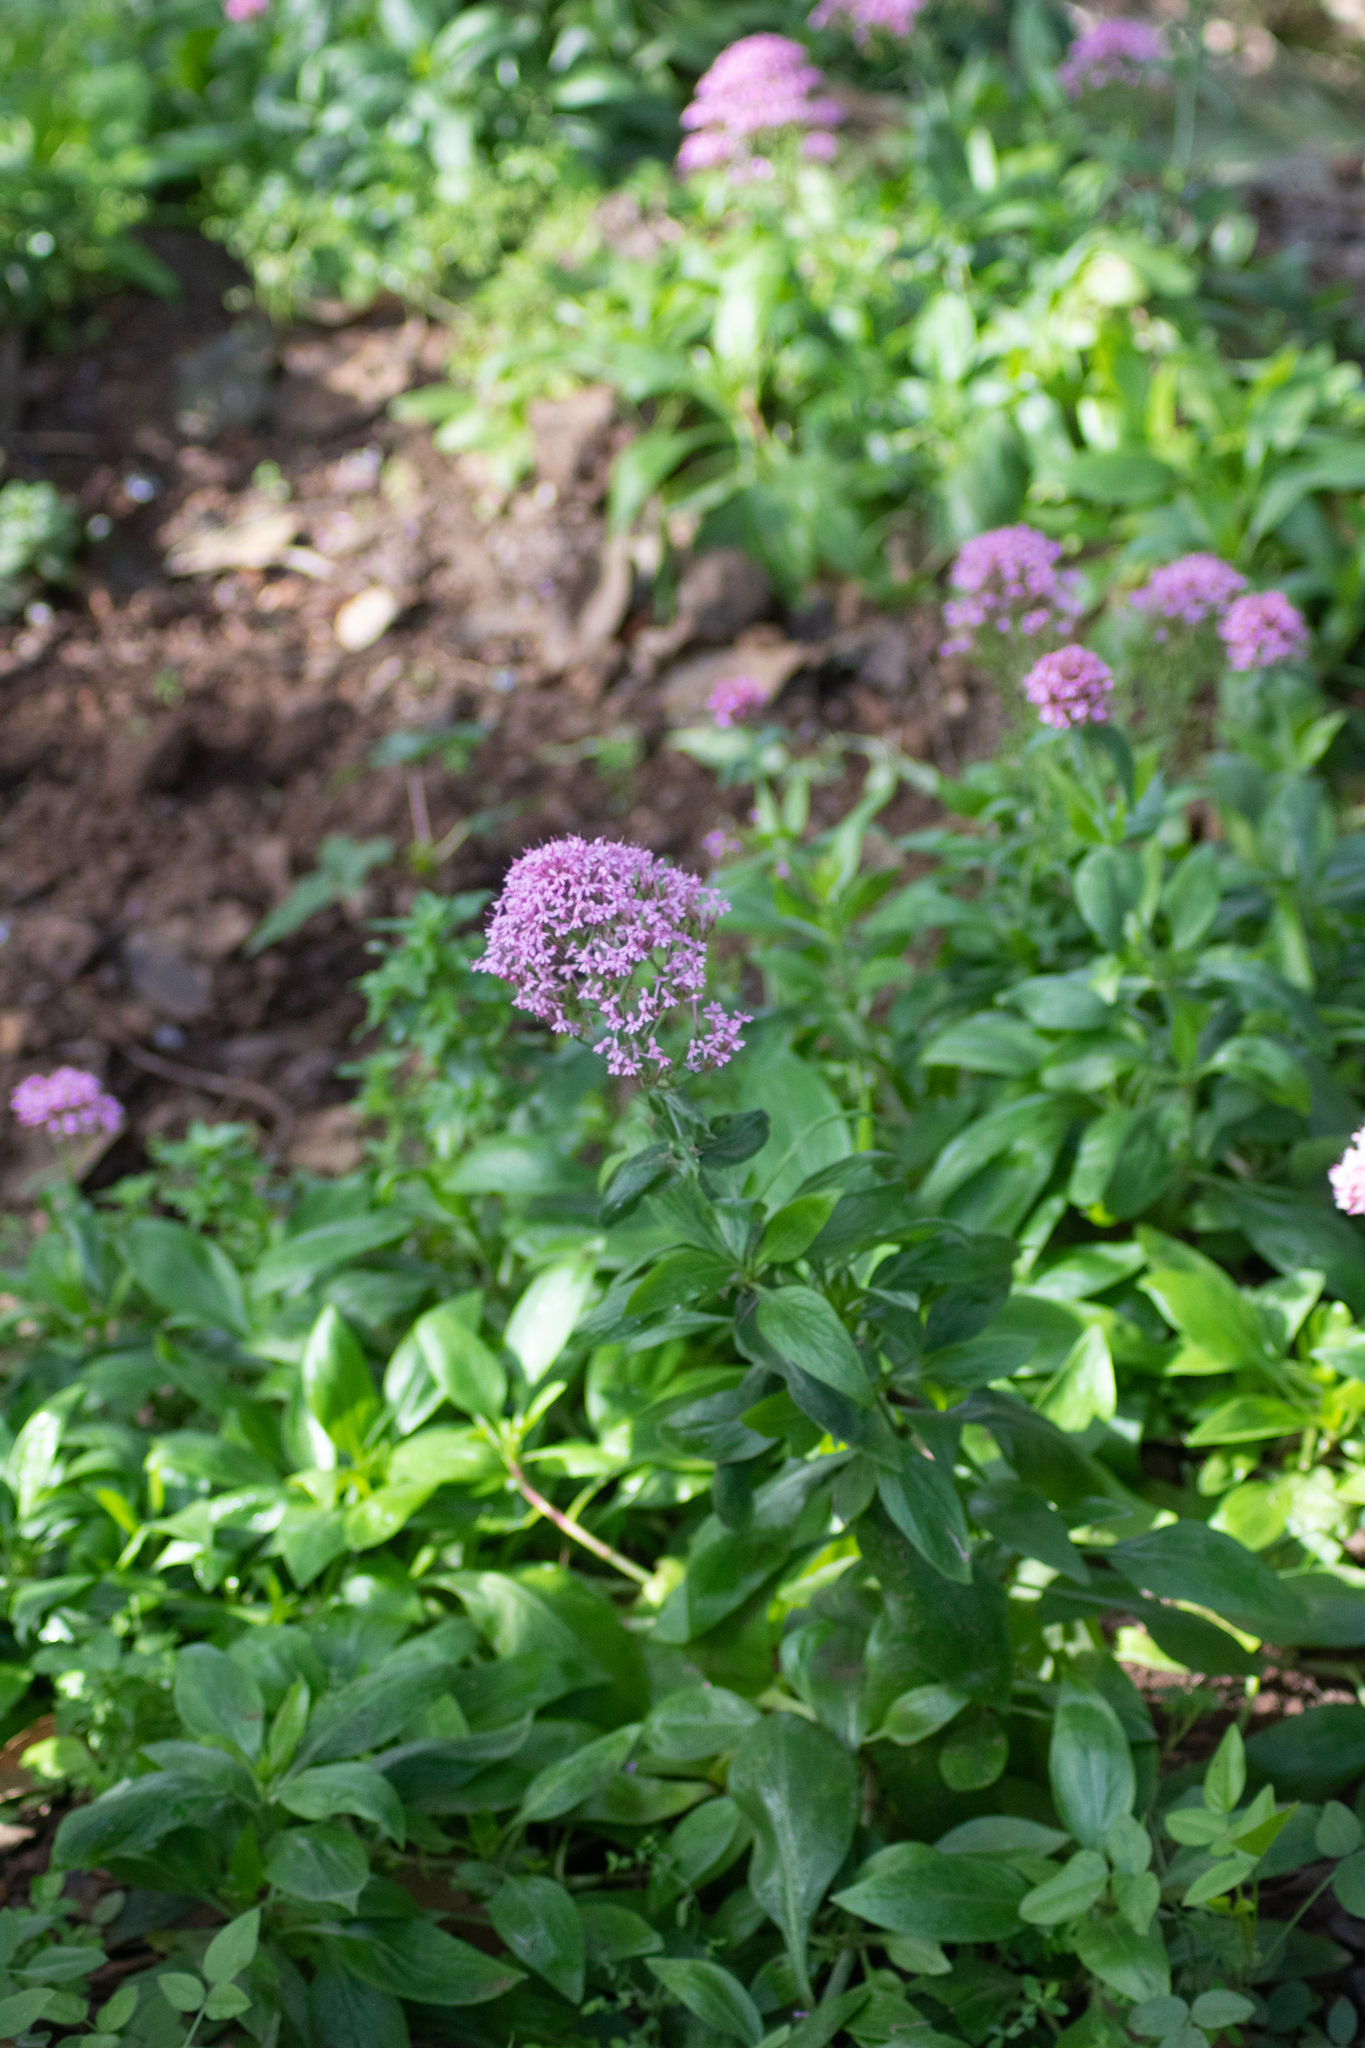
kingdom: Plantae
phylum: Tracheophyta
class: Magnoliopsida
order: Dipsacales
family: Caprifoliaceae
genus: Centranthus
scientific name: Centranthus ruber
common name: Red valerian
